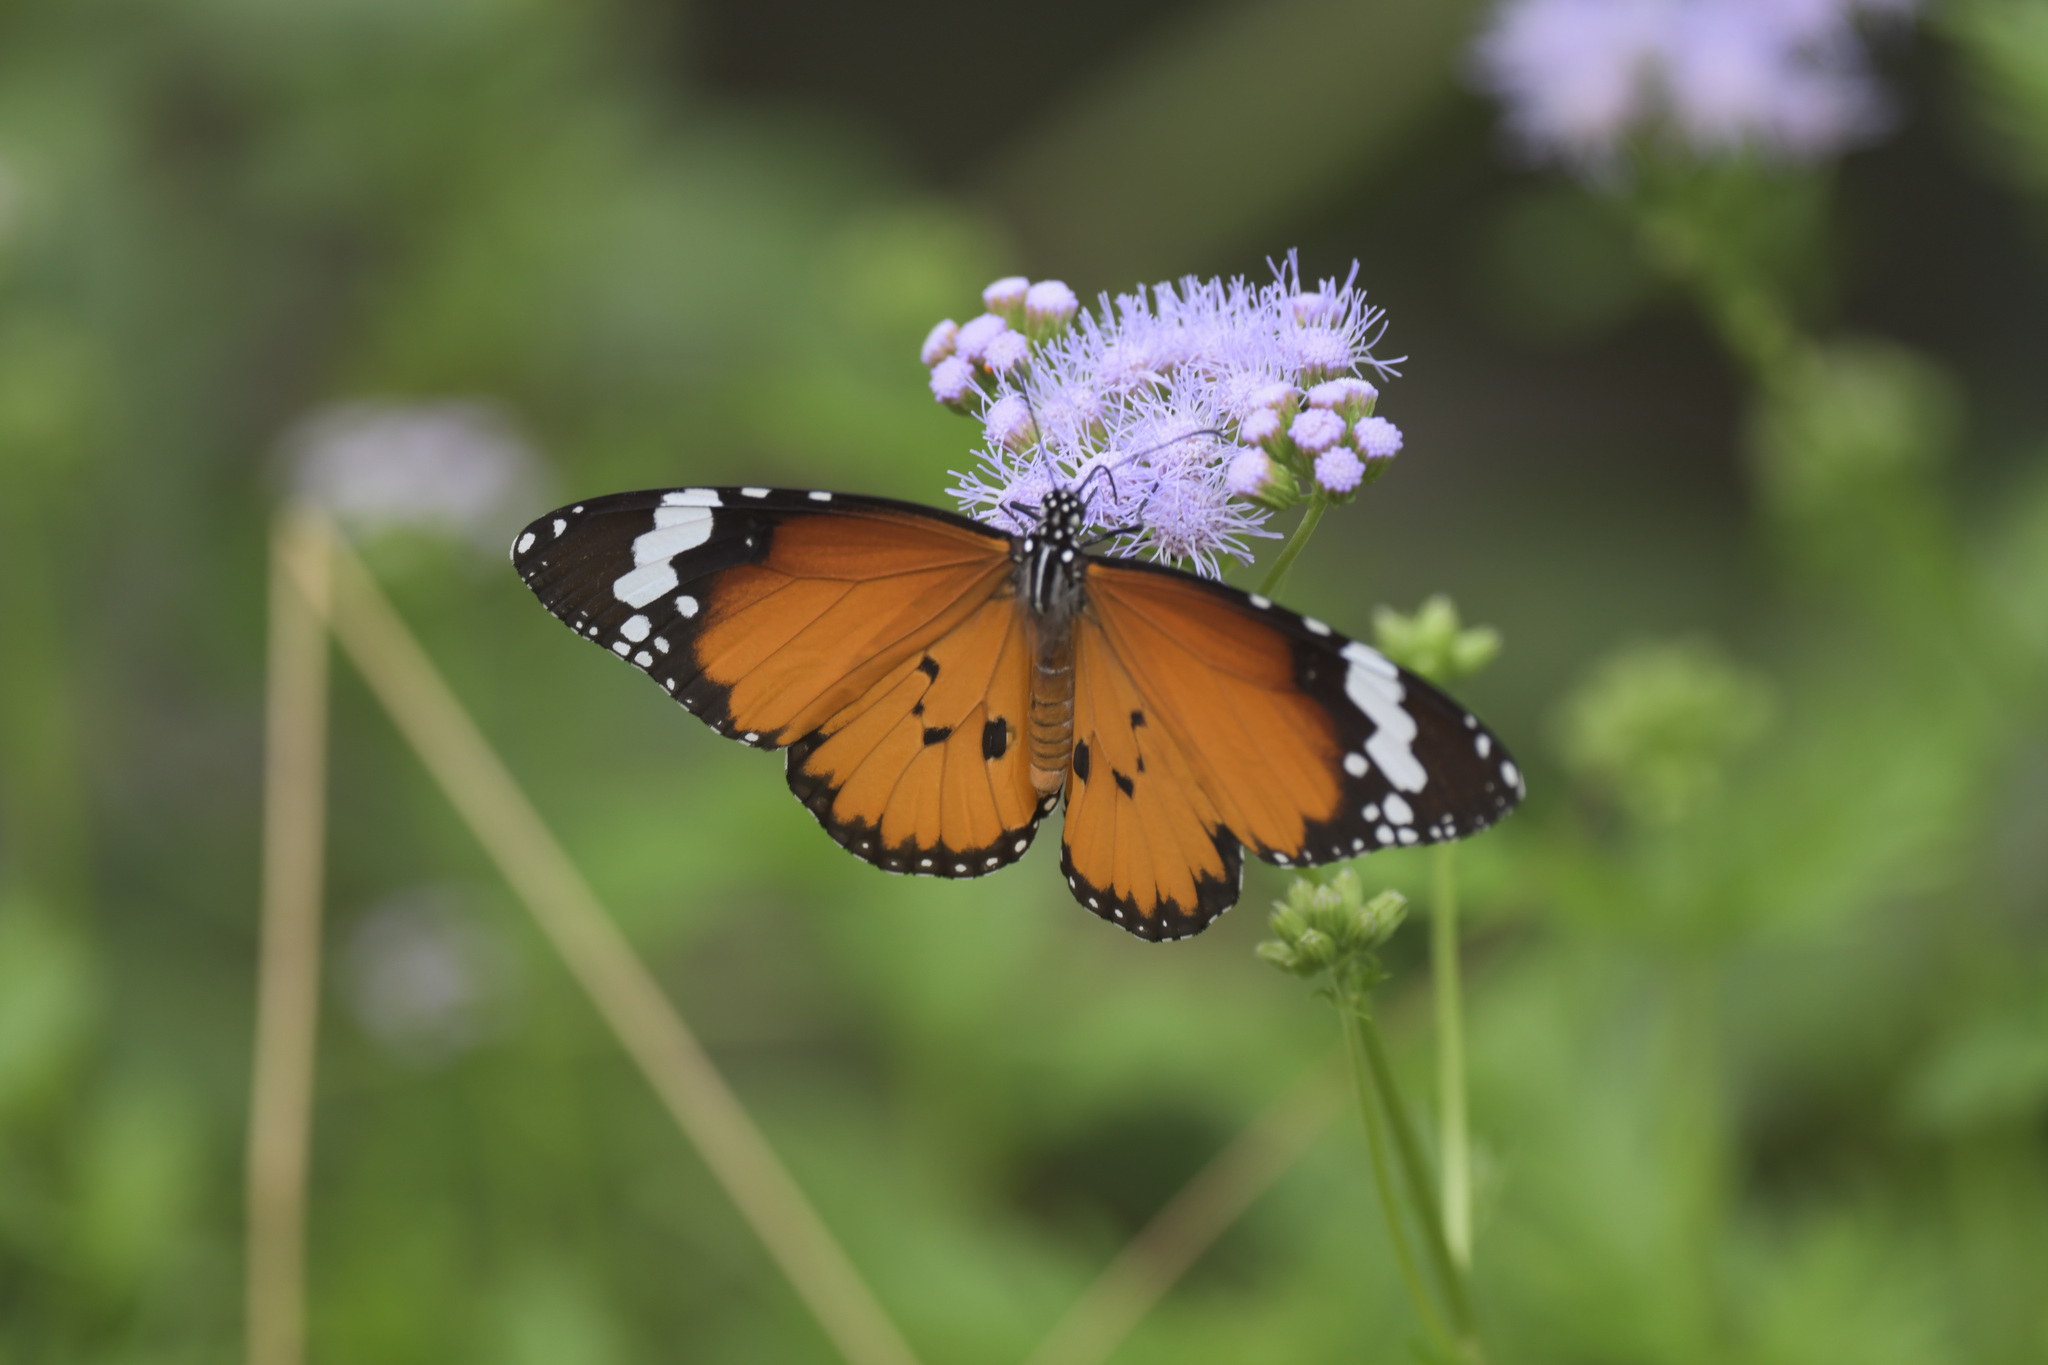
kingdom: Animalia
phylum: Arthropoda
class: Insecta
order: Lepidoptera
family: Nymphalidae
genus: Danaus
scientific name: Danaus chrysippus
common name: Plain tiger
